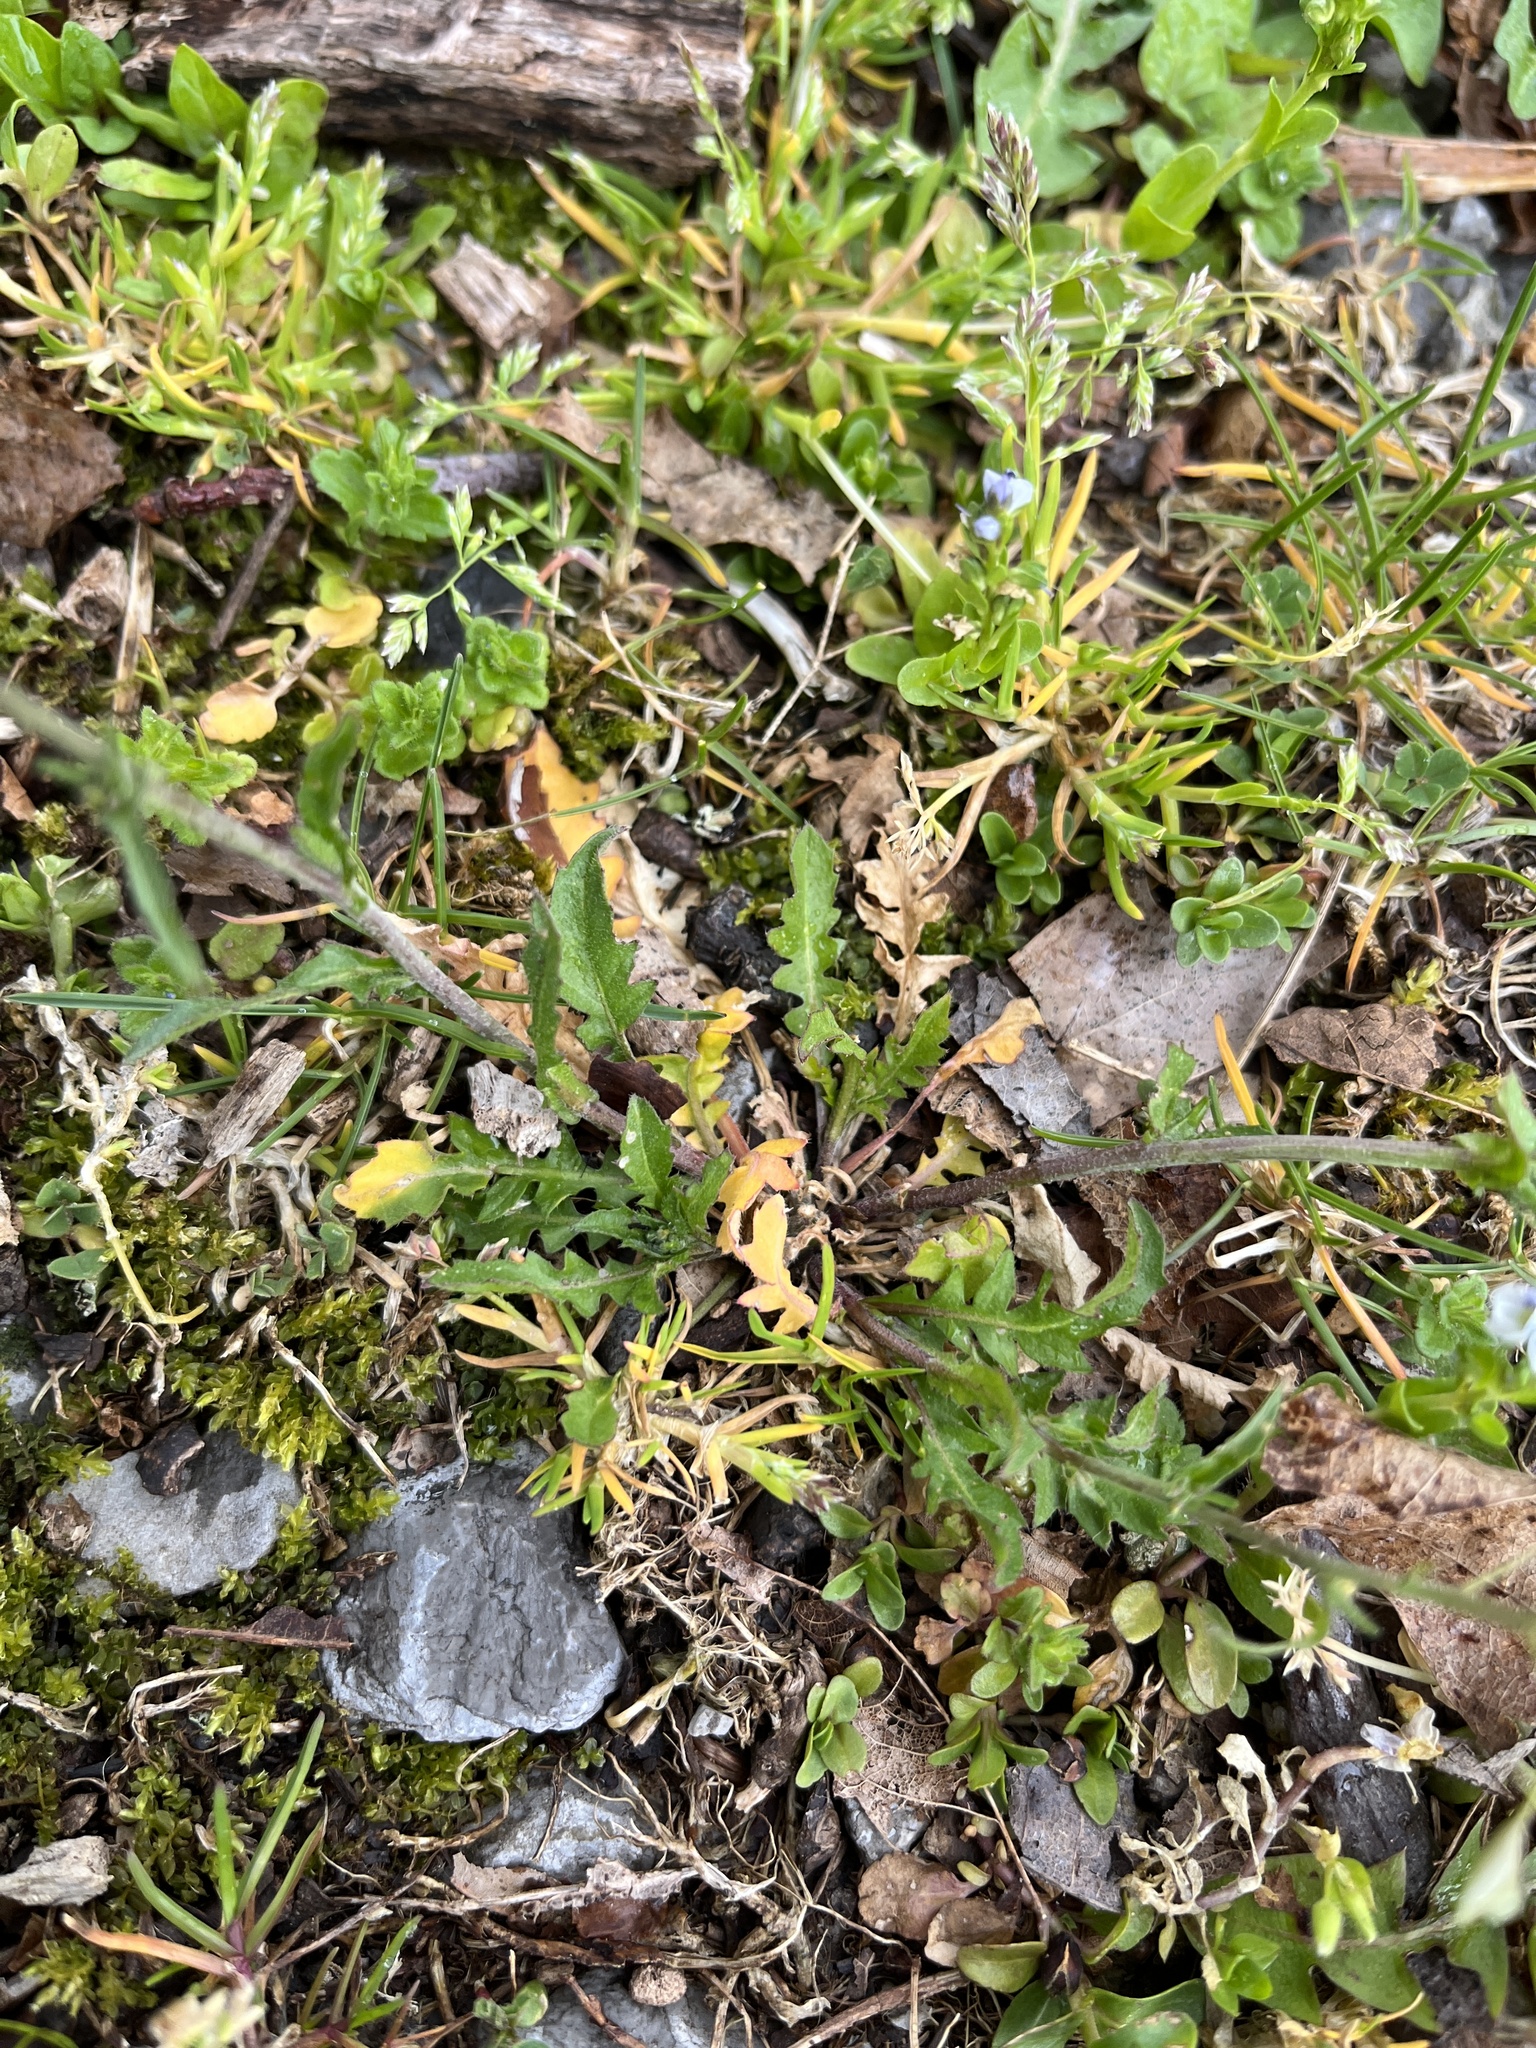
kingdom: Plantae
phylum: Tracheophyta
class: Magnoliopsida
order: Brassicales
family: Brassicaceae
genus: Capsella
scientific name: Capsella bursa-pastoris
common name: Shepherd's purse
